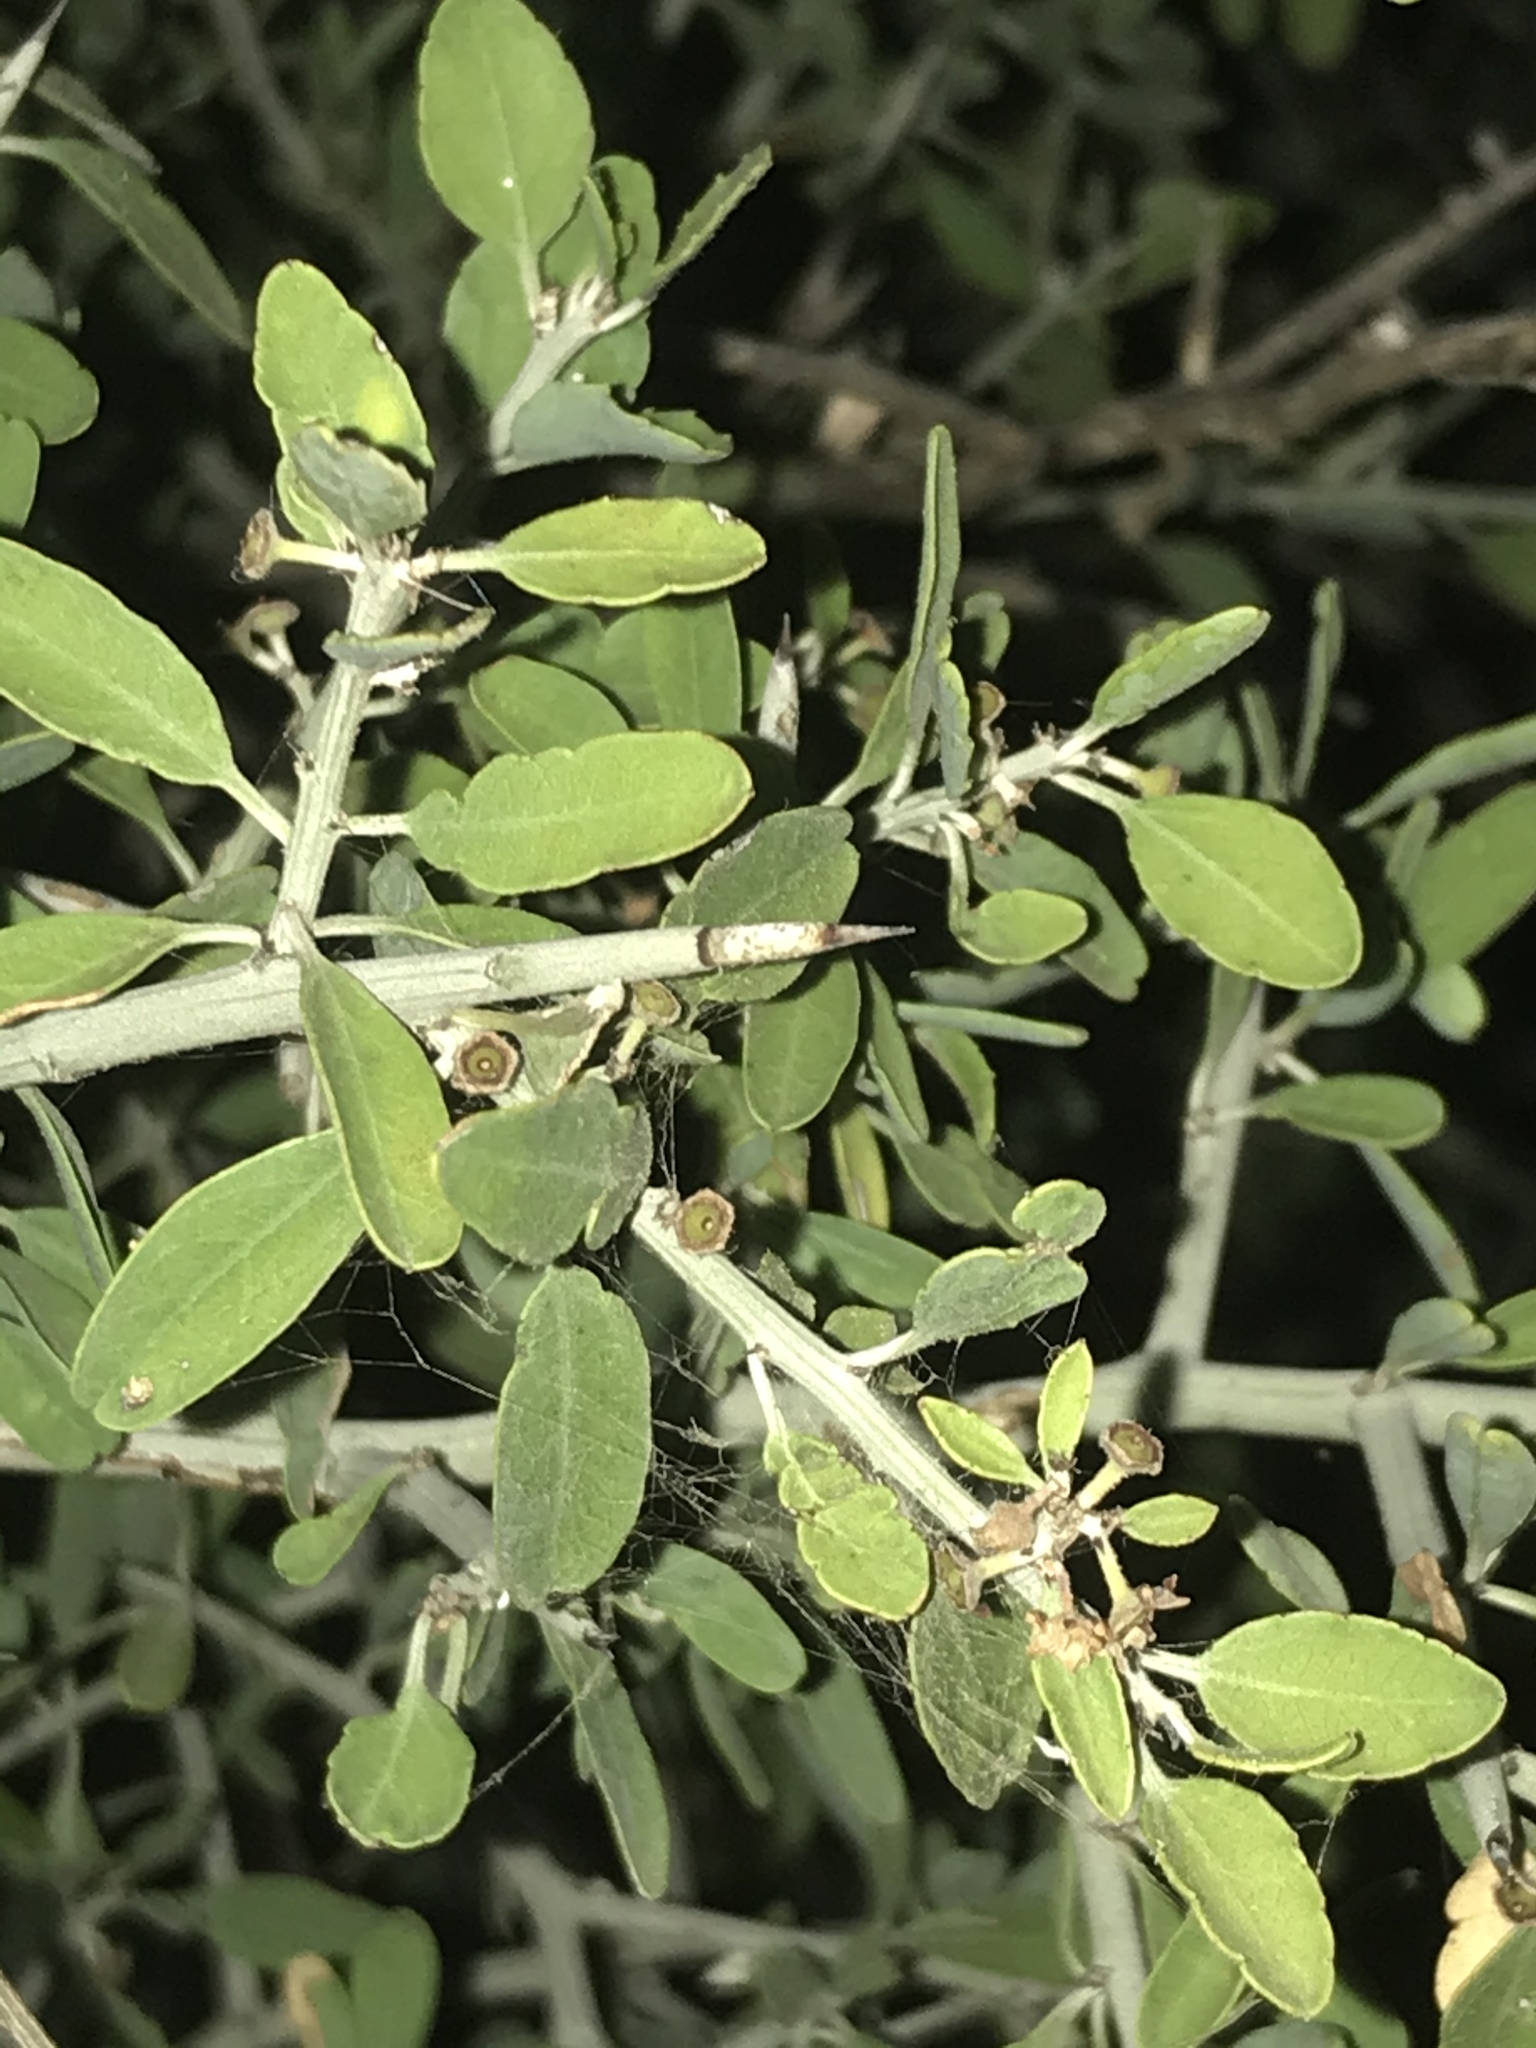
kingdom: Plantae
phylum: Tracheophyta
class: Magnoliopsida
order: Rosales
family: Rhamnaceae
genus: Sarcomphalus
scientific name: Sarcomphalus obtusifolius
